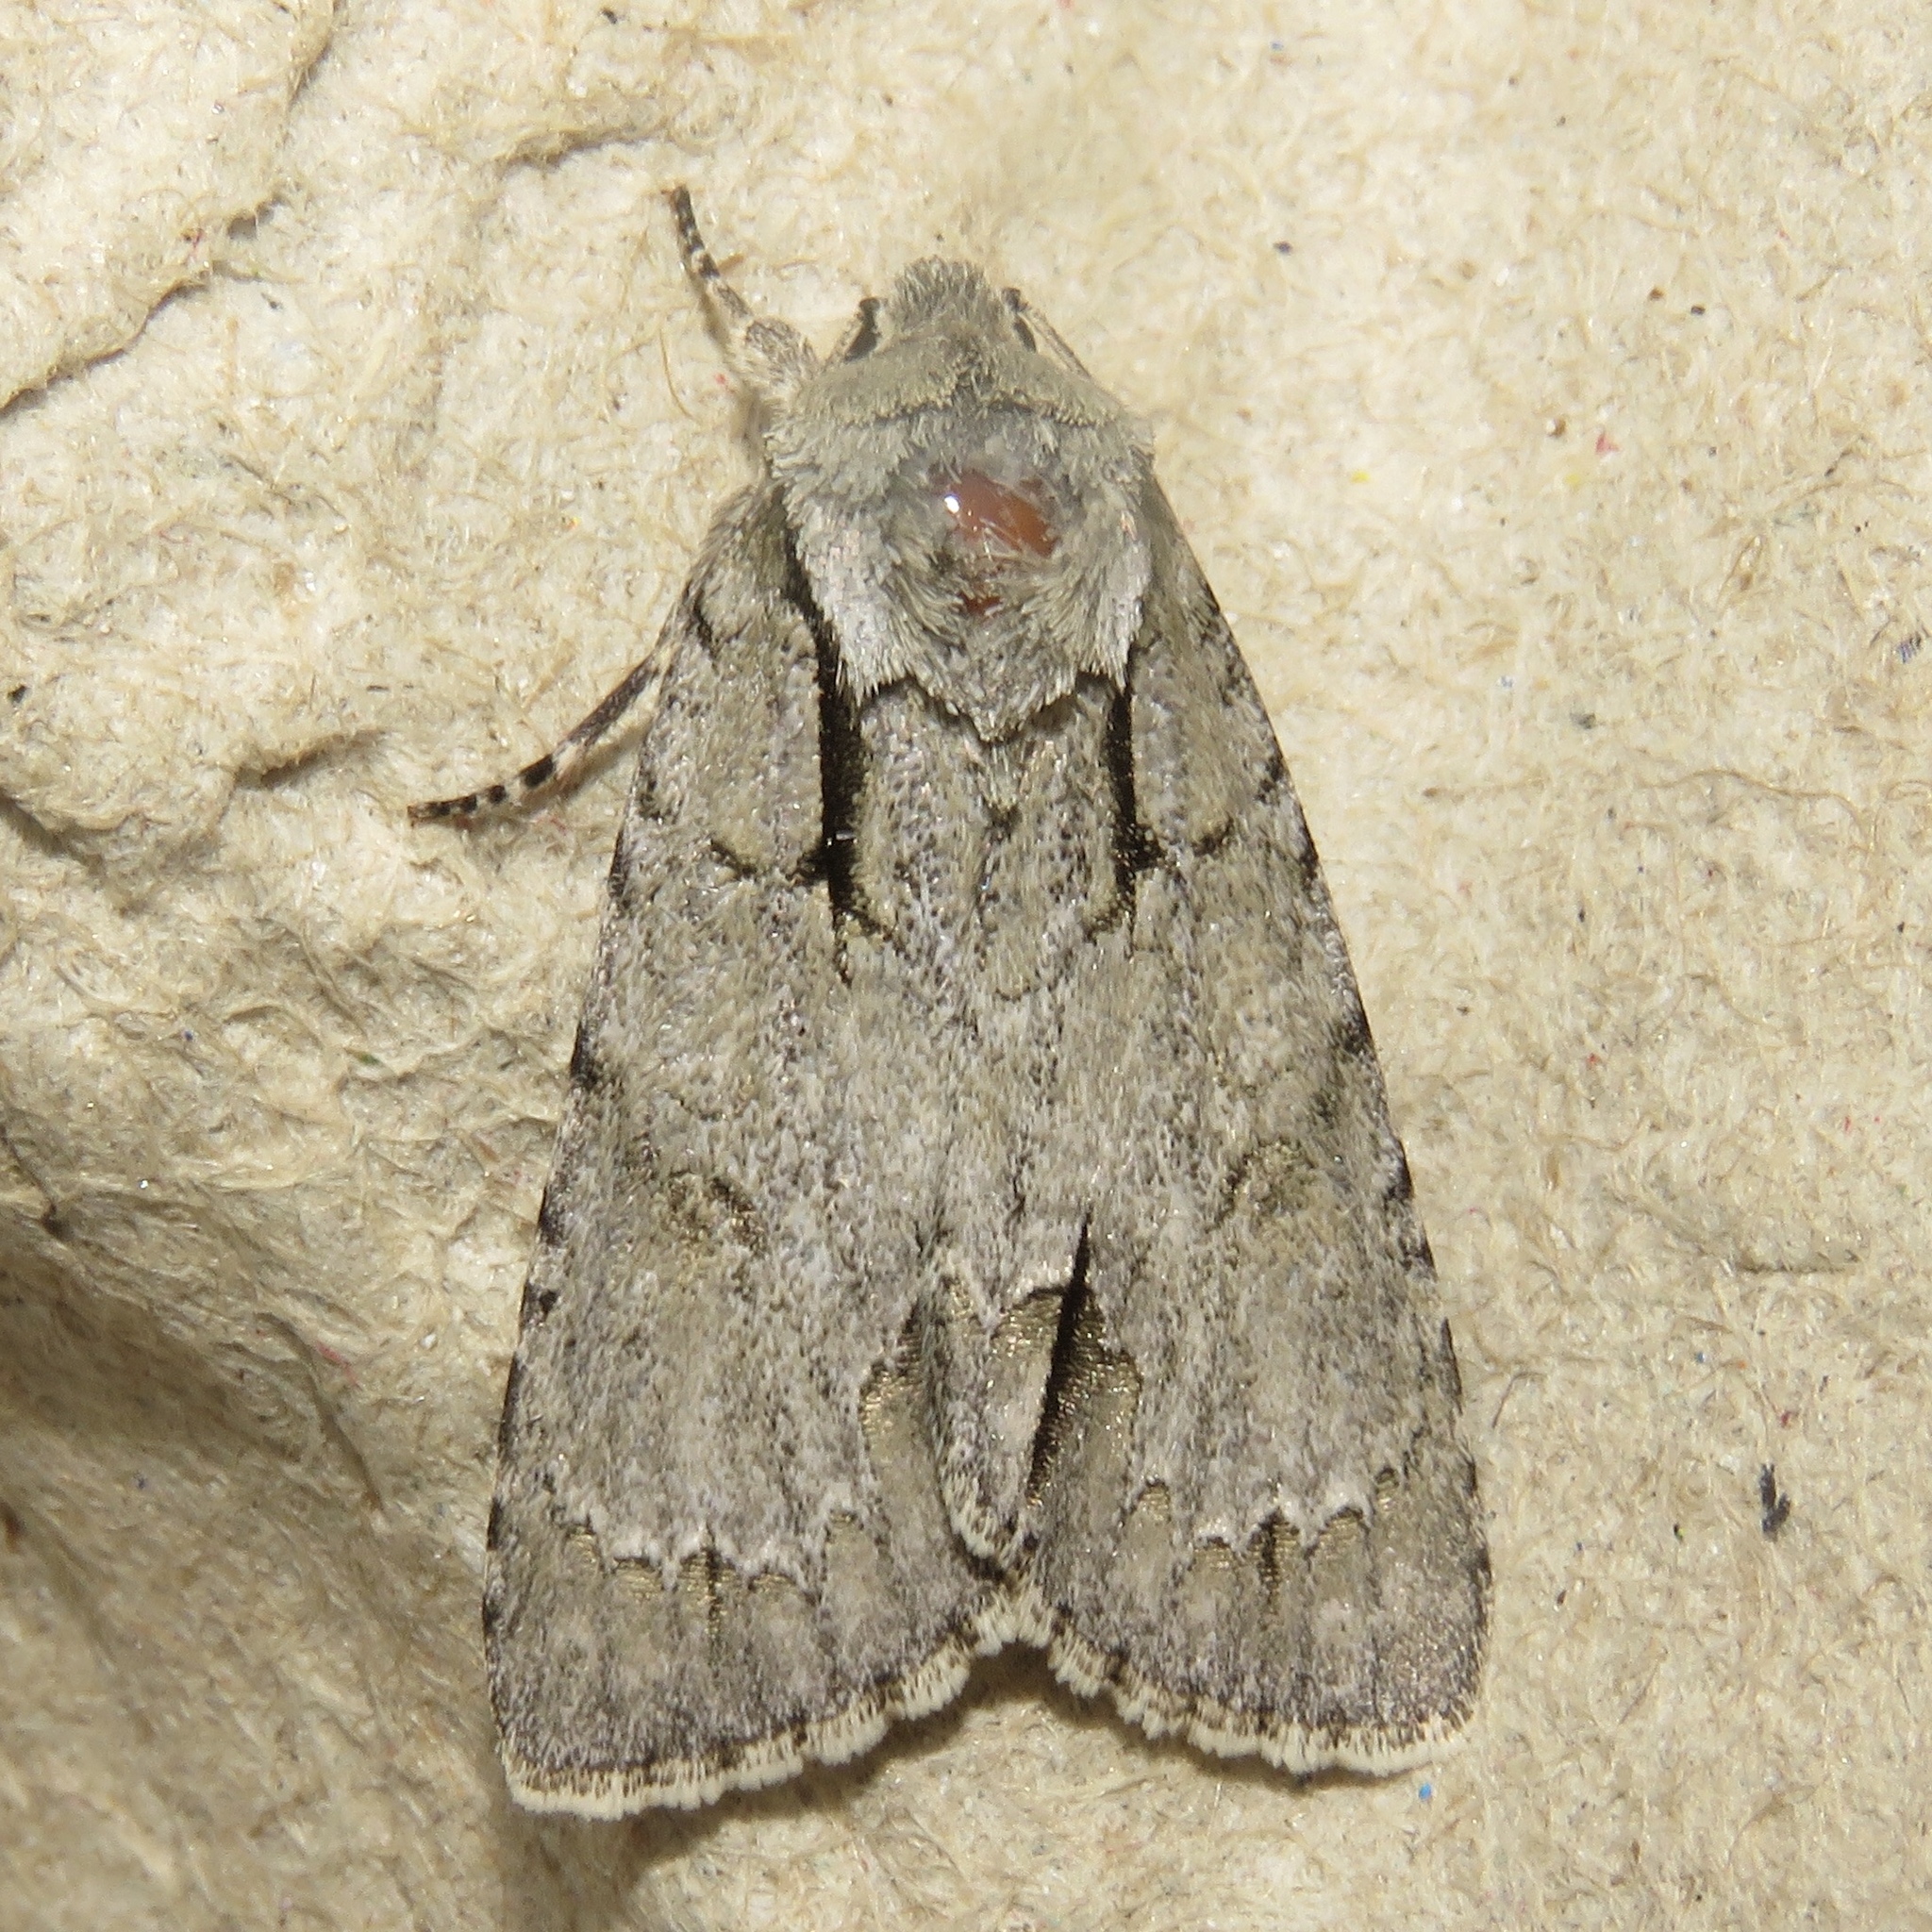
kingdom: Animalia
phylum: Arthropoda
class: Insecta
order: Lepidoptera
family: Noctuidae
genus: Acronicta
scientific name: Acronicta interrupta
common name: Interrupted dagger
